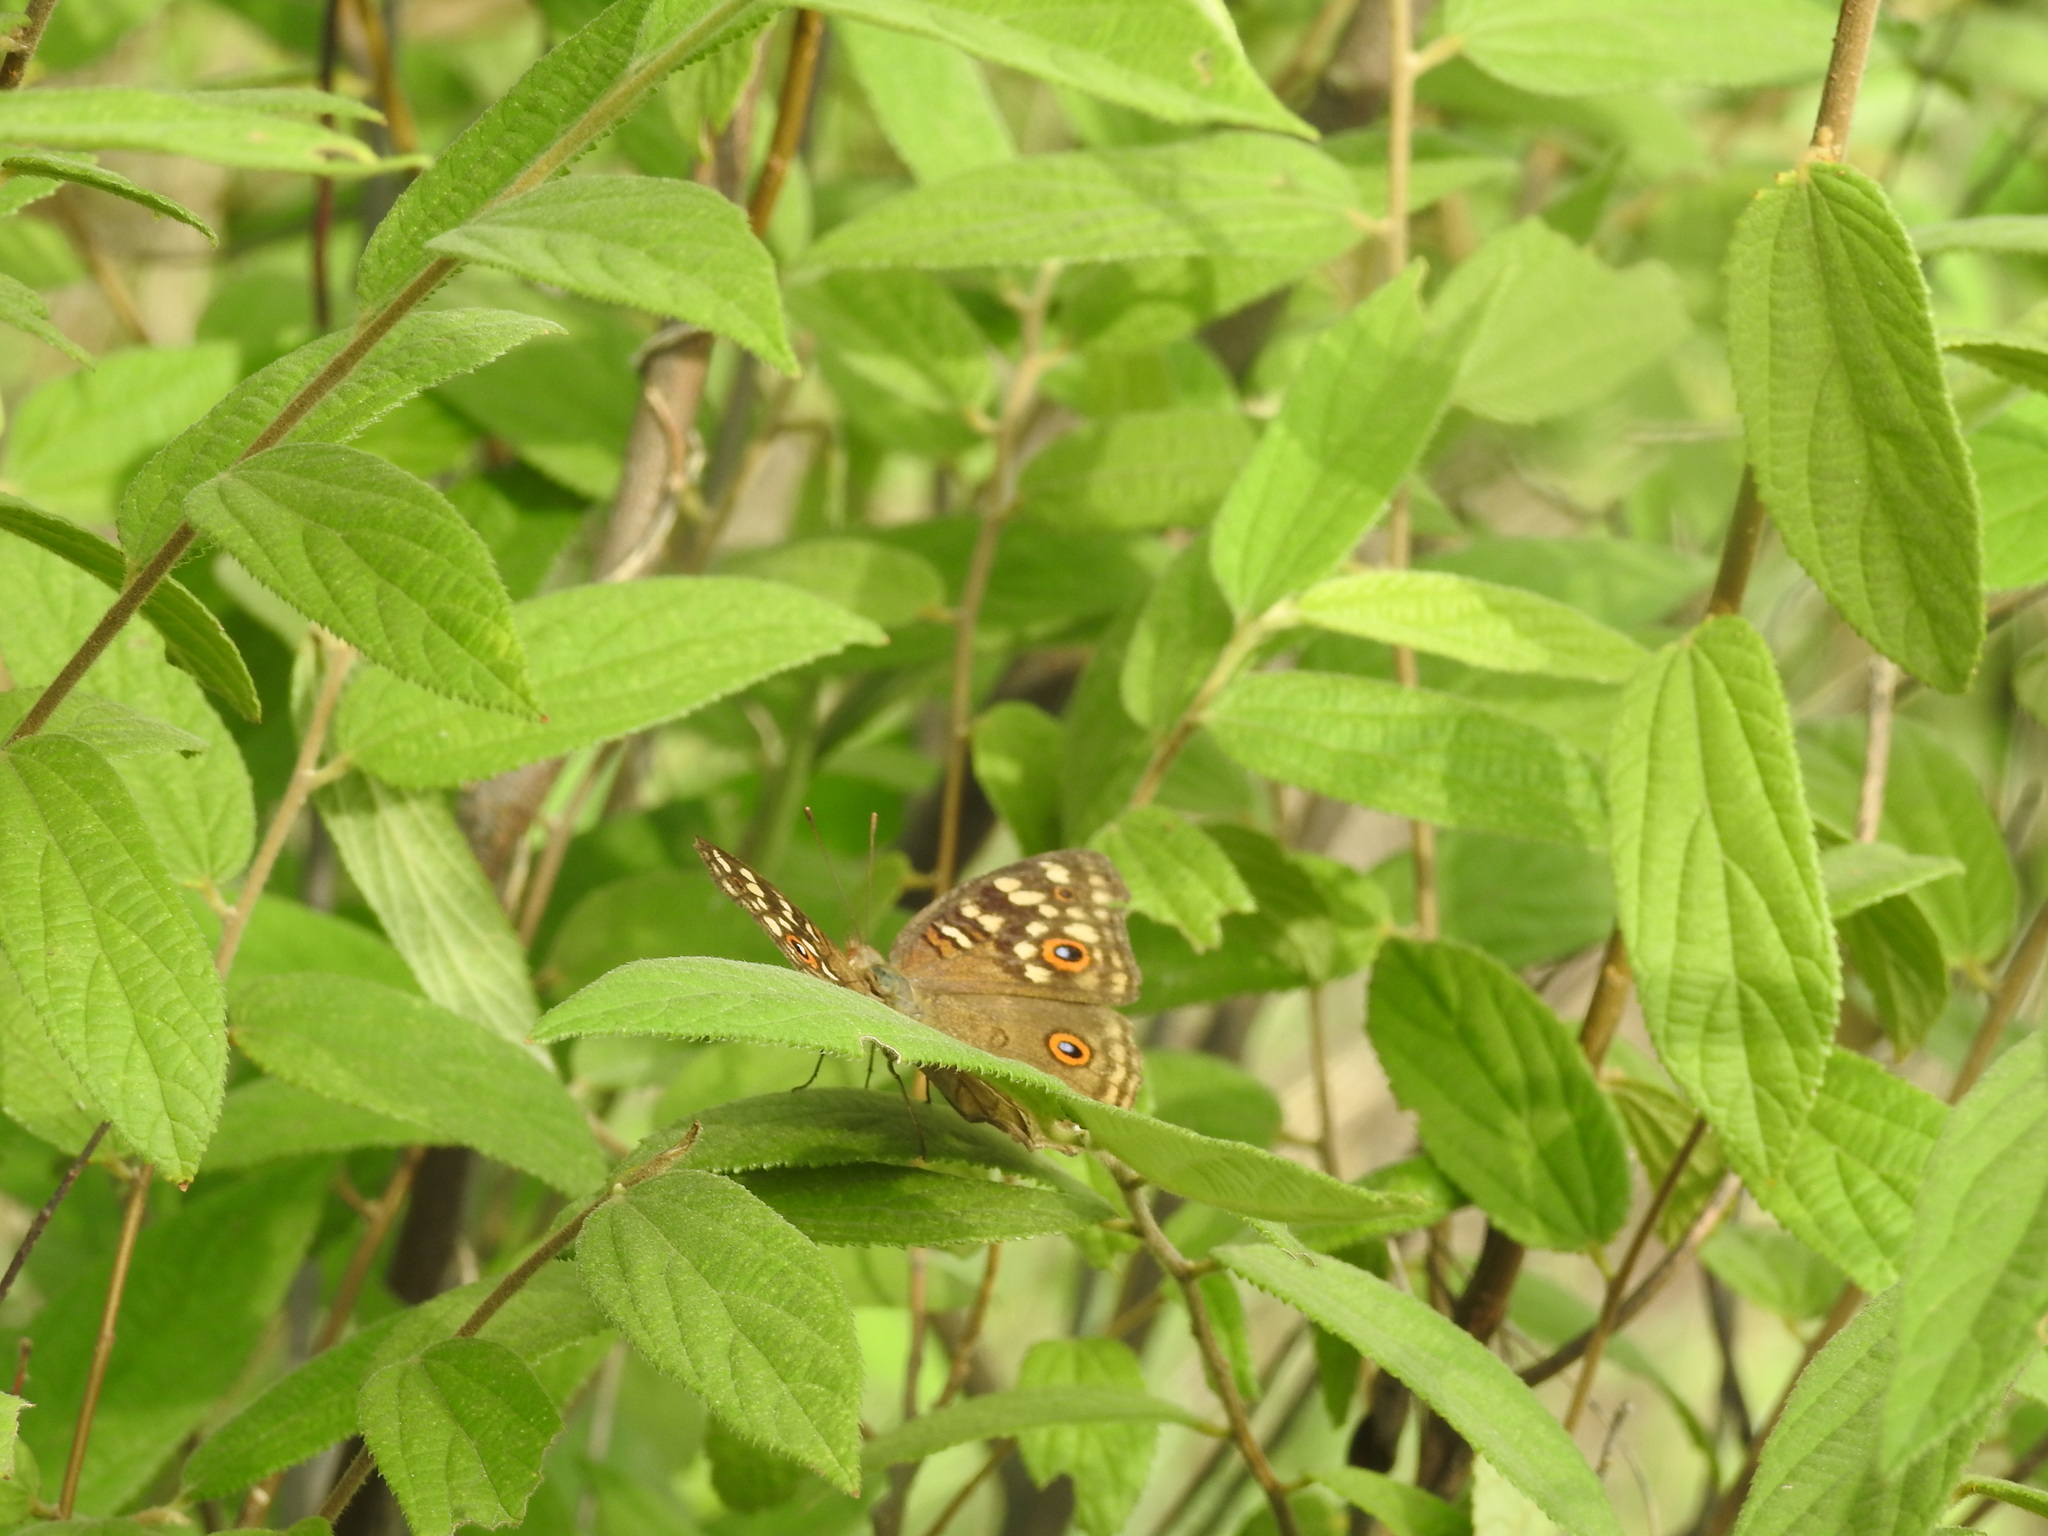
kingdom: Animalia
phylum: Arthropoda
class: Insecta
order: Lepidoptera
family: Nymphalidae
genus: Junonia
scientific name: Junonia lemonias
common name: Lemon pansy
